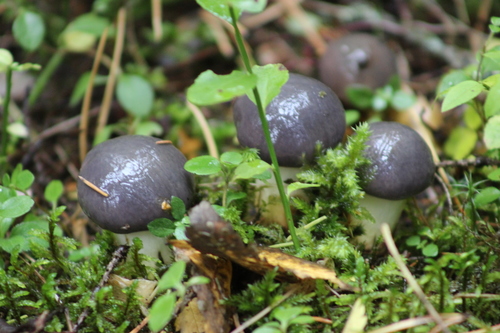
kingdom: Fungi
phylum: Basidiomycota
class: Agaricomycetes
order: Boletales
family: Gomphidiaceae
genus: Gomphidius
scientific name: Gomphidius glutinosus
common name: Slimy spike
